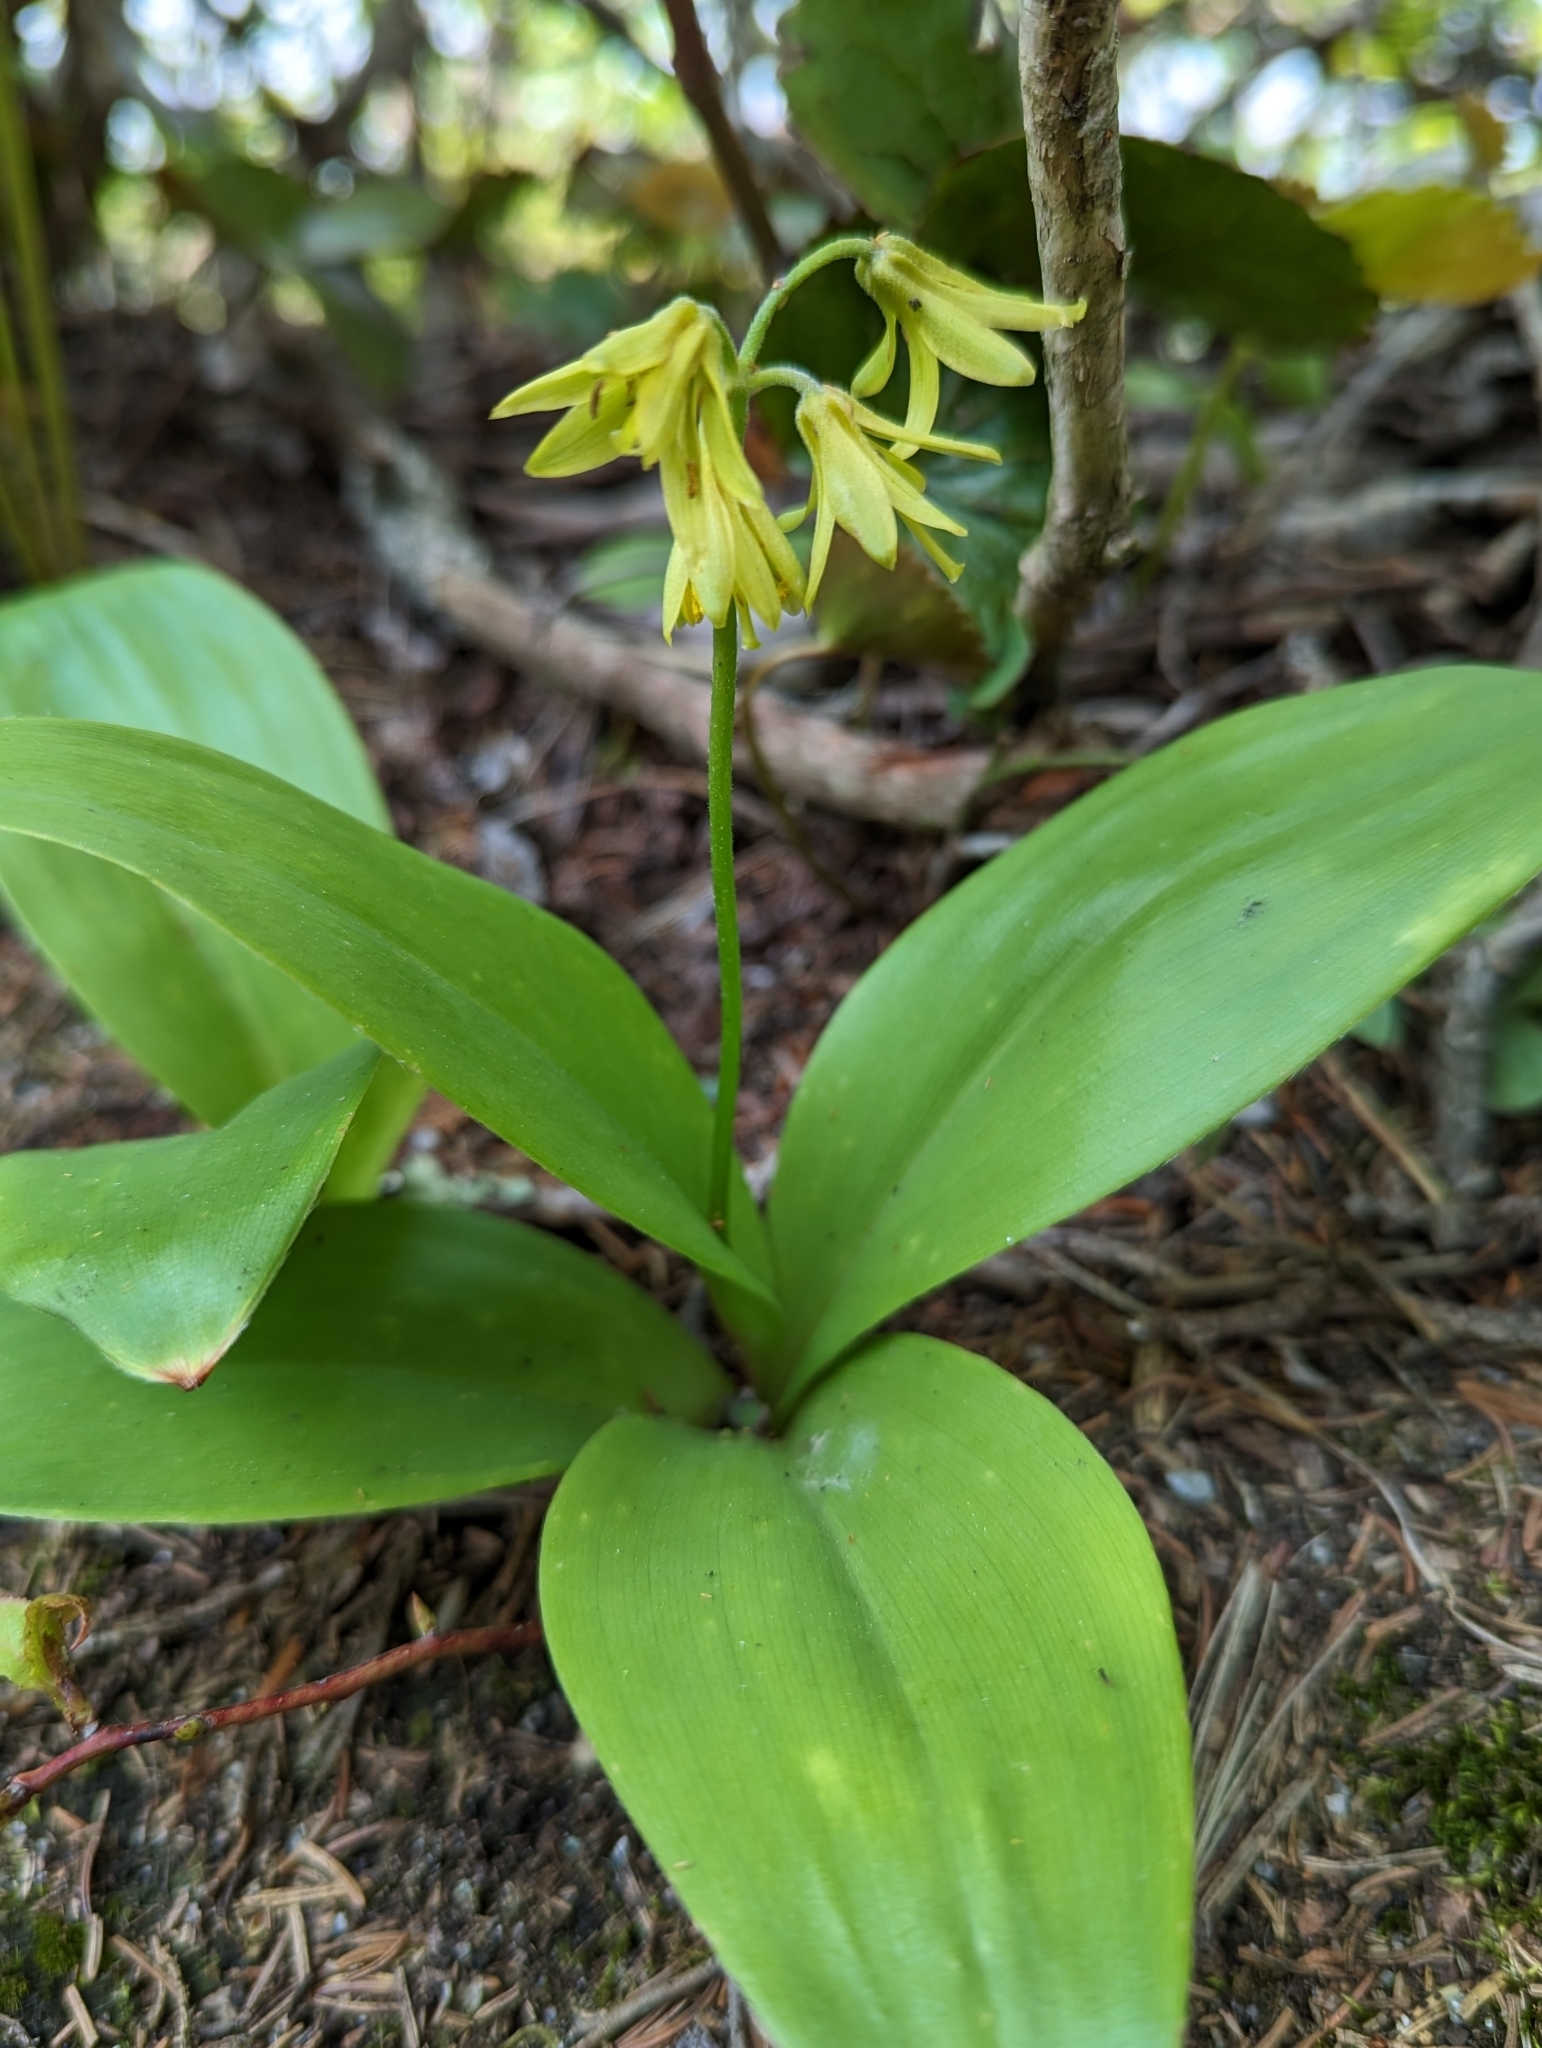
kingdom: Plantae
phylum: Tracheophyta
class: Liliopsida
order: Liliales
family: Liliaceae
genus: Clintonia
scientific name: Clintonia borealis
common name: Yellow clintonia
